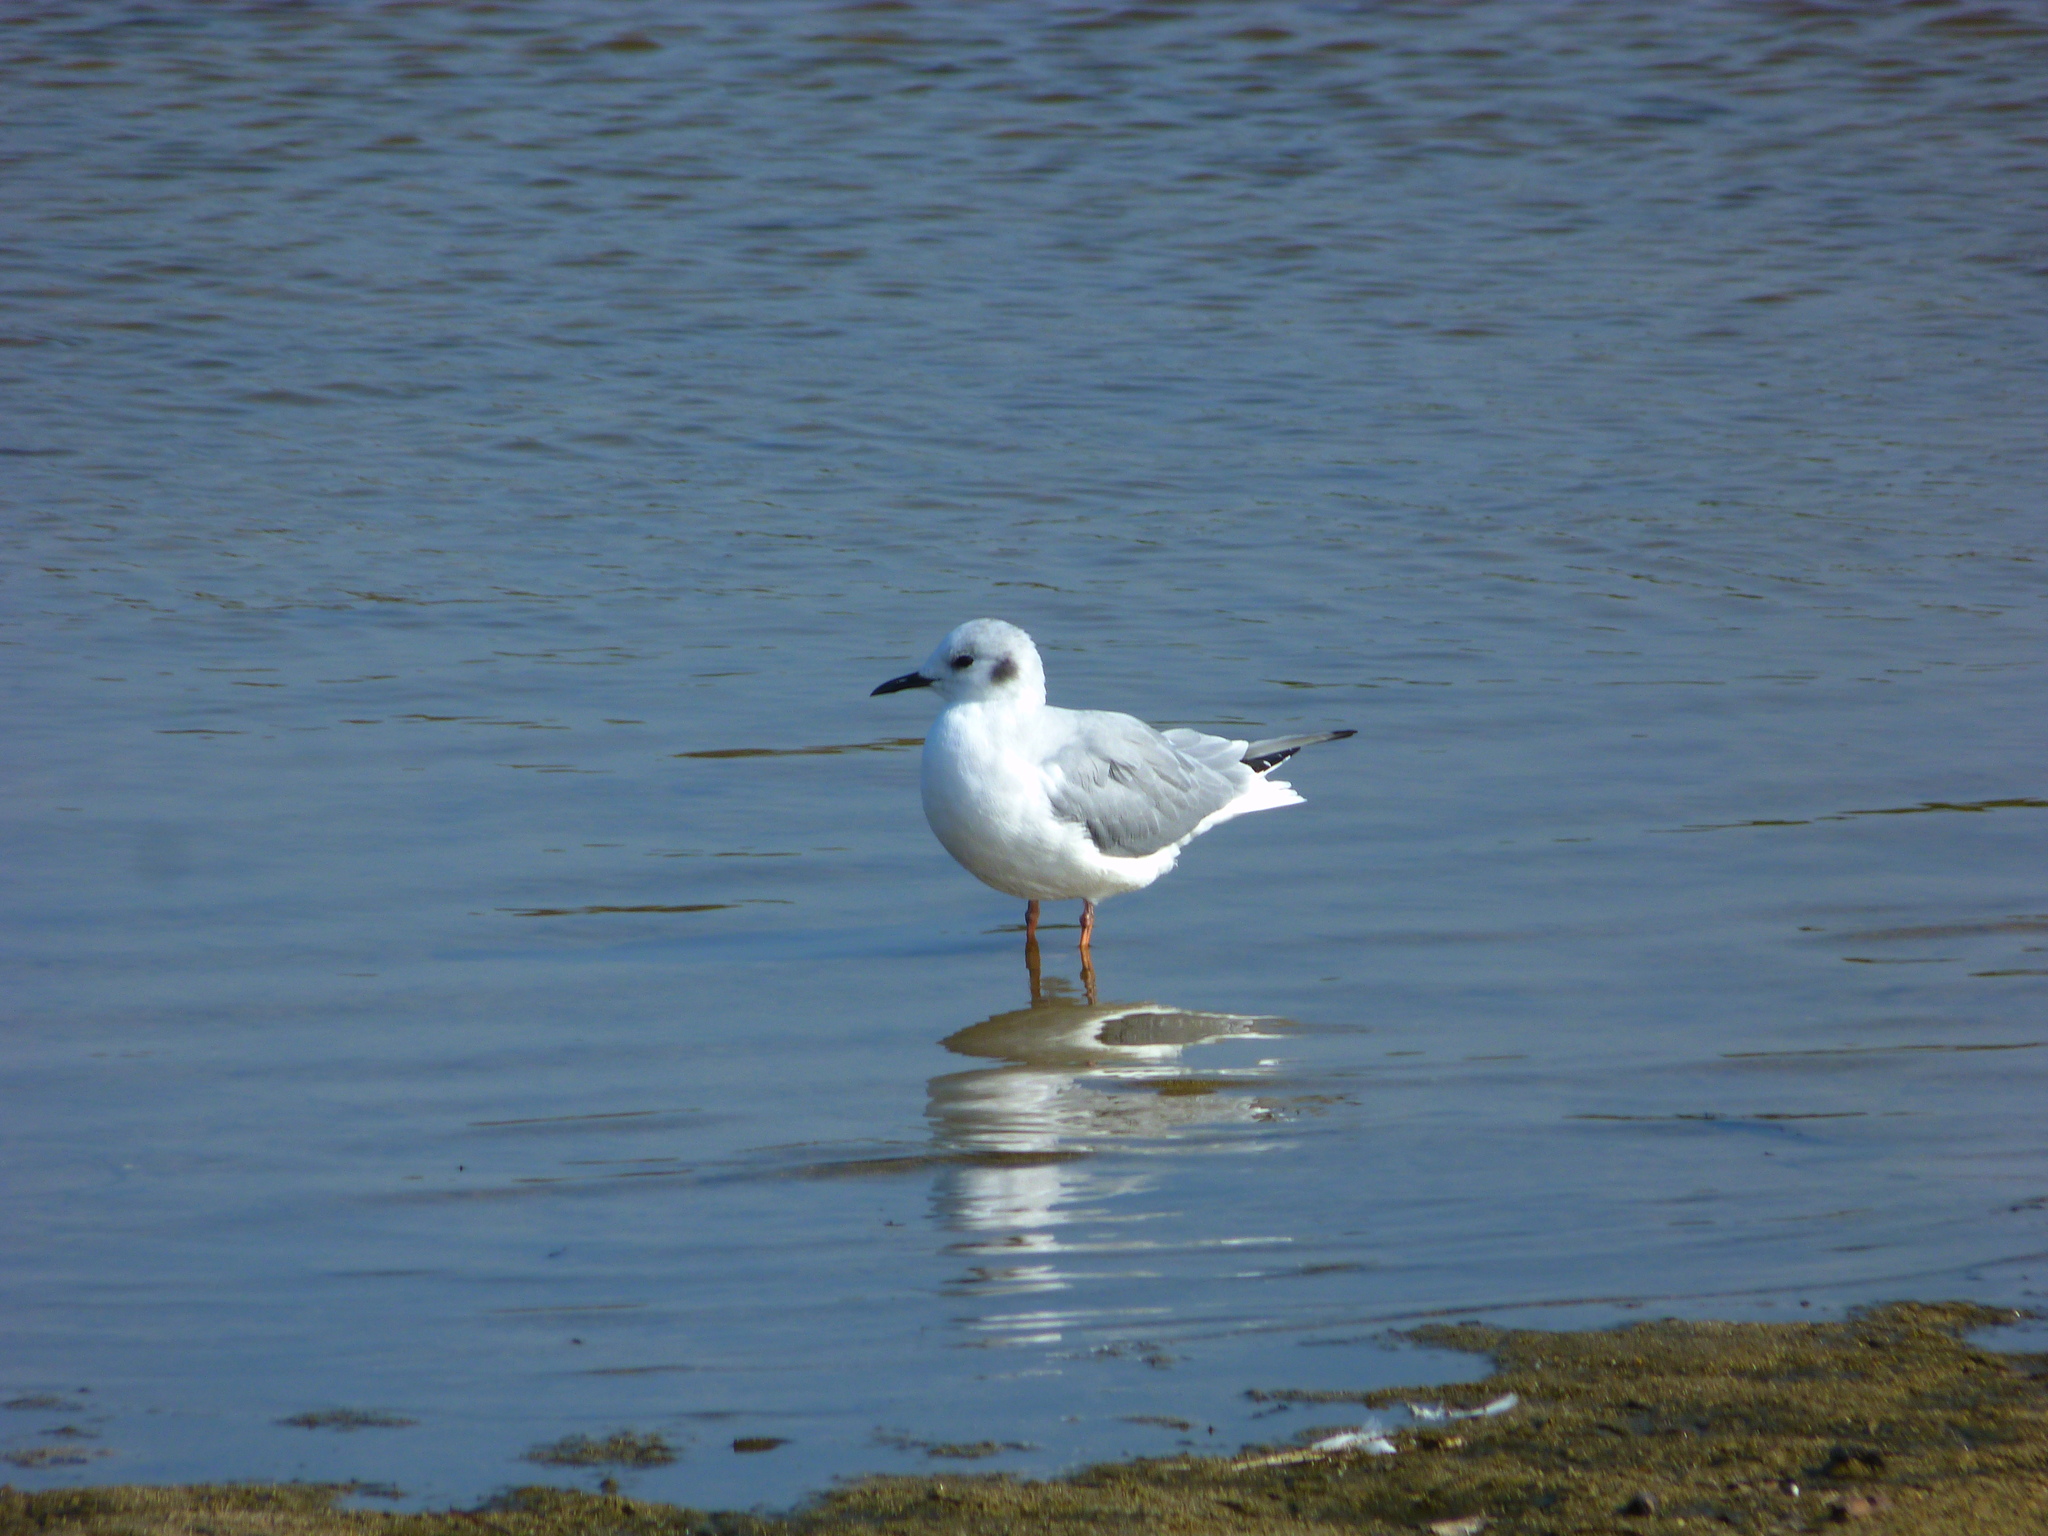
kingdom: Animalia
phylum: Chordata
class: Aves
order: Charadriiformes
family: Laridae
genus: Chroicocephalus
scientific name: Chroicocephalus philadelphia
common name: Bonaparte's gull
